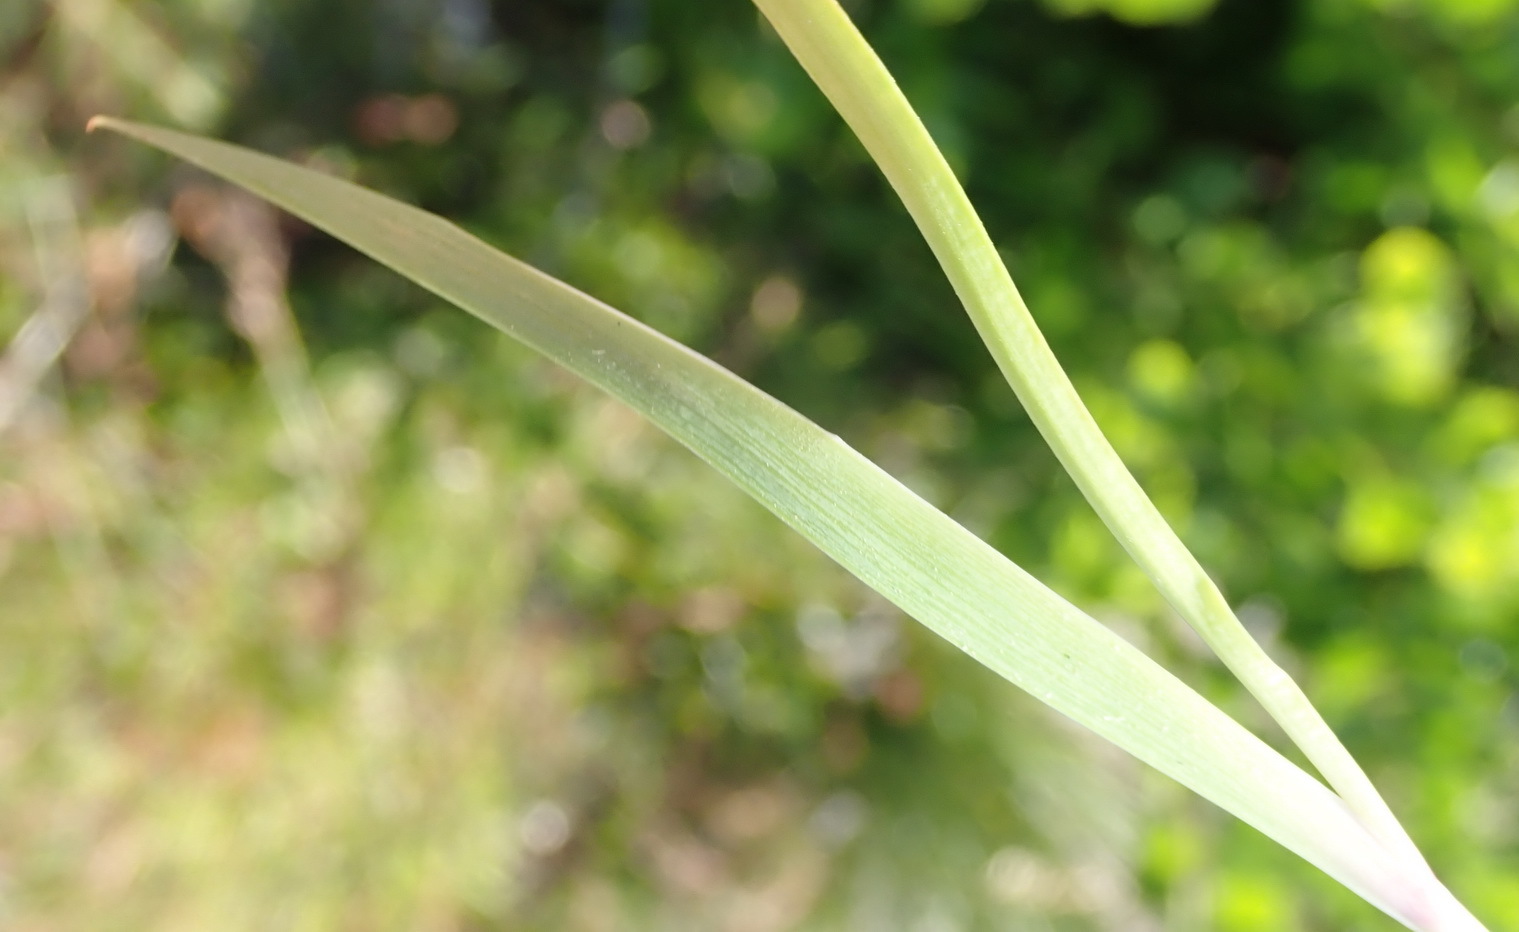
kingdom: Plantae
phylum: Tracheophyta
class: Liliopsida
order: Asparagales
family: Iridaceae
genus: Aristea
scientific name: Aristea pusilla
